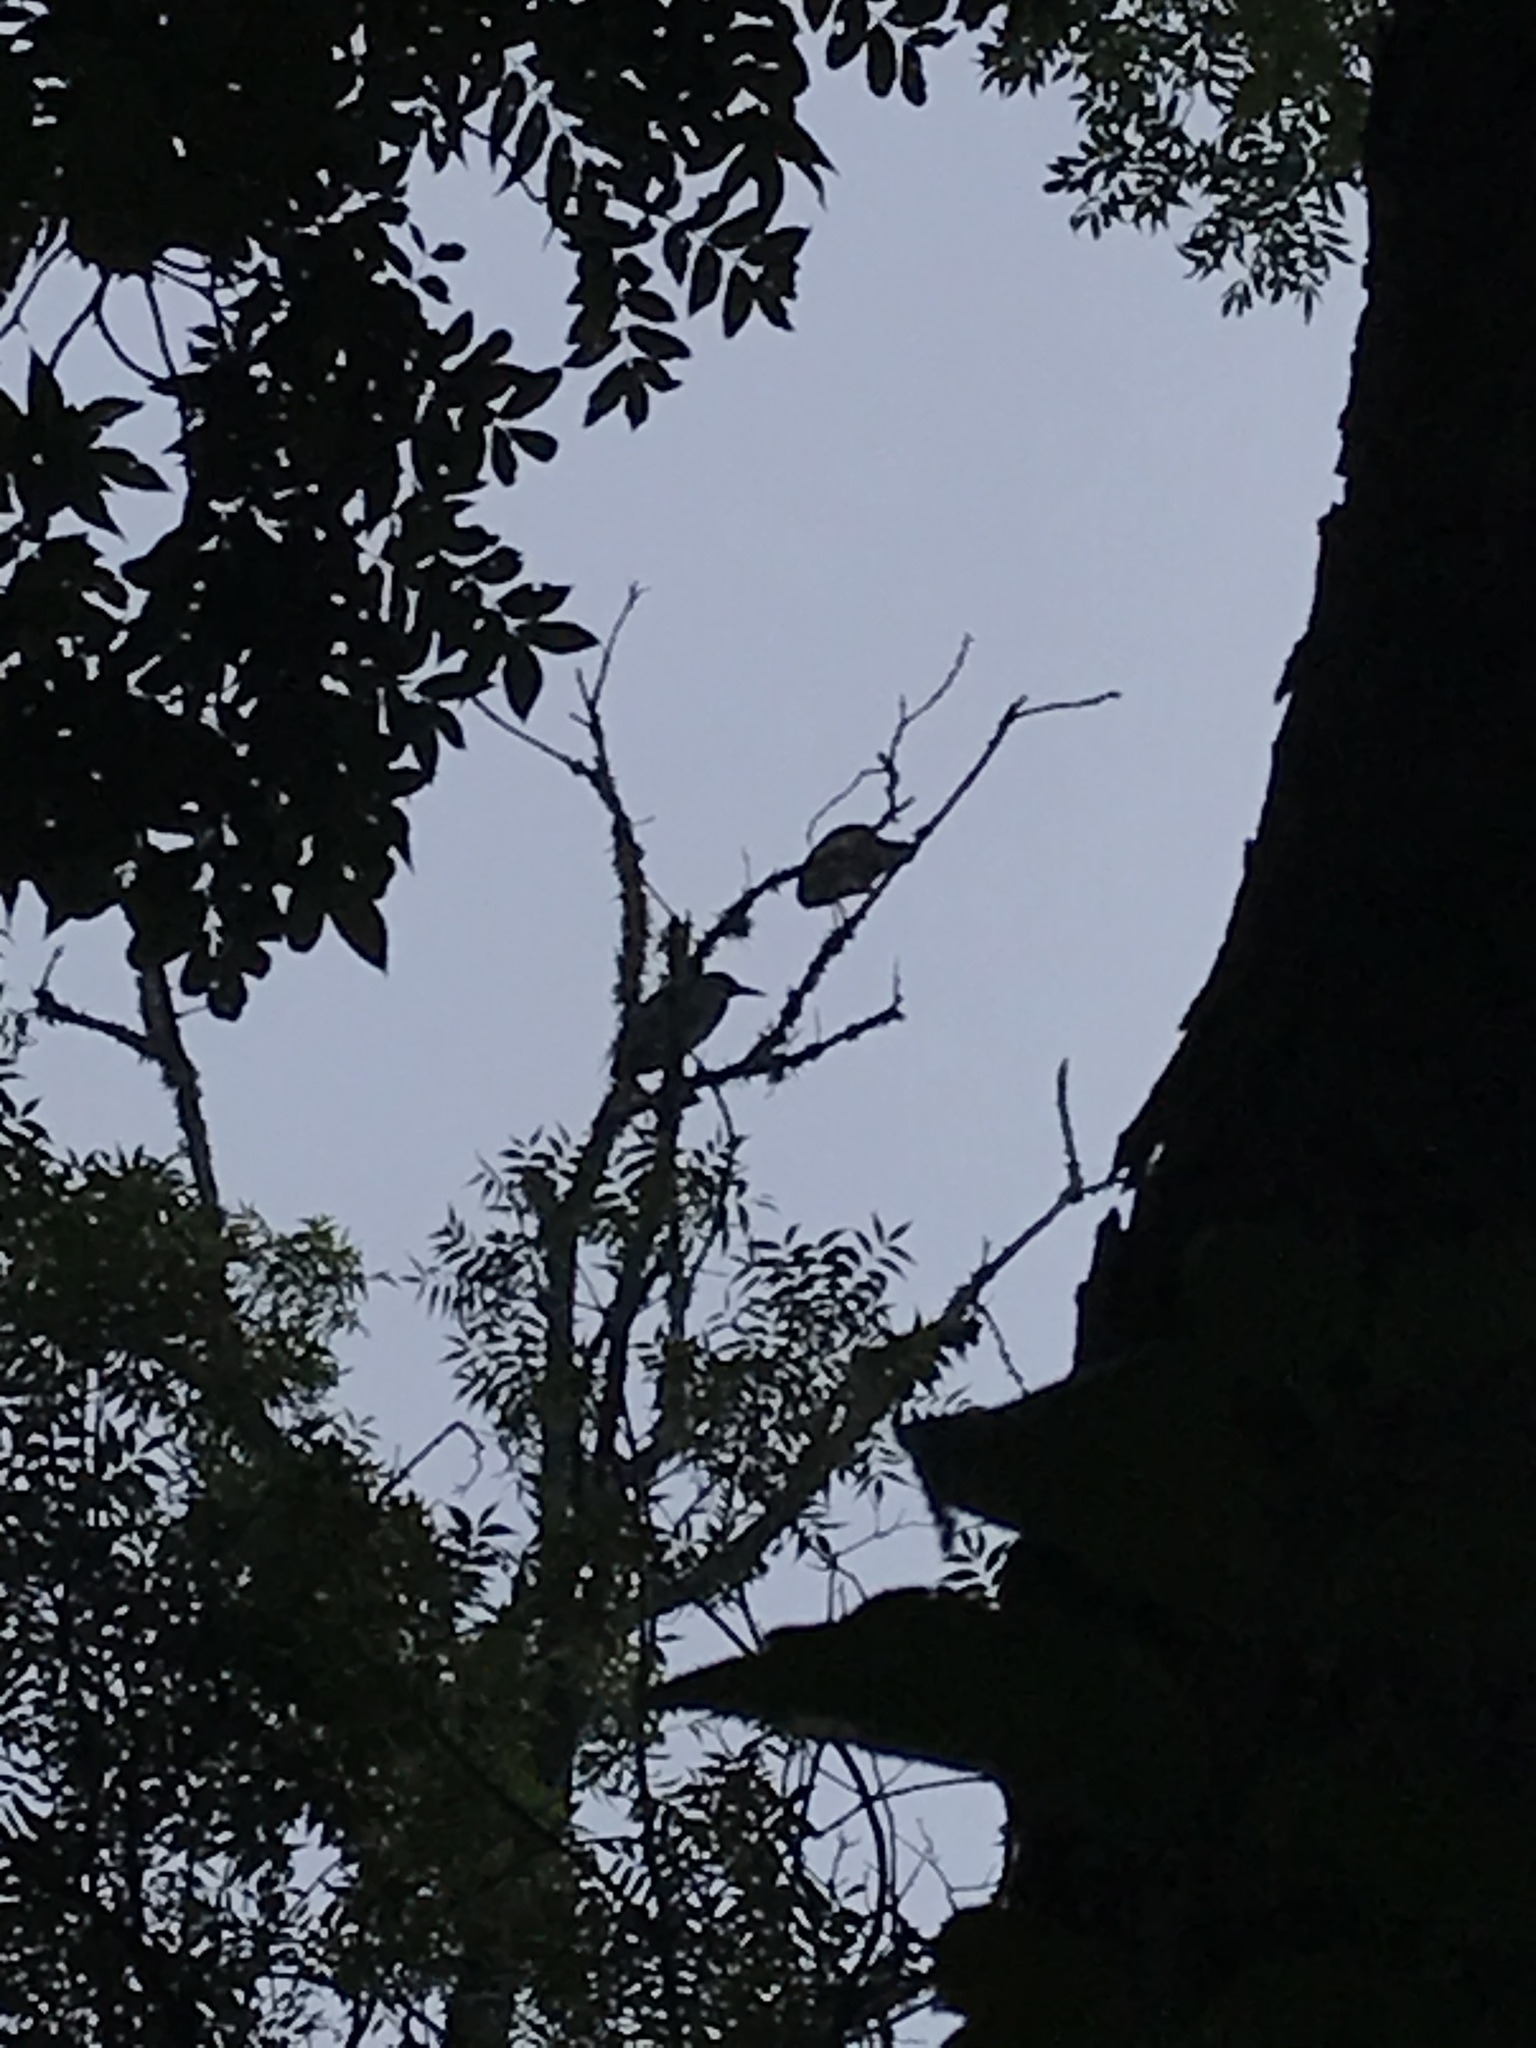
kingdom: Animalia
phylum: Chordata
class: Aves
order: Pelecaniformes
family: Ardeidae
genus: Nyctanassa
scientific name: Nyctanassa violacea
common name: Yellow-crowned night heron
